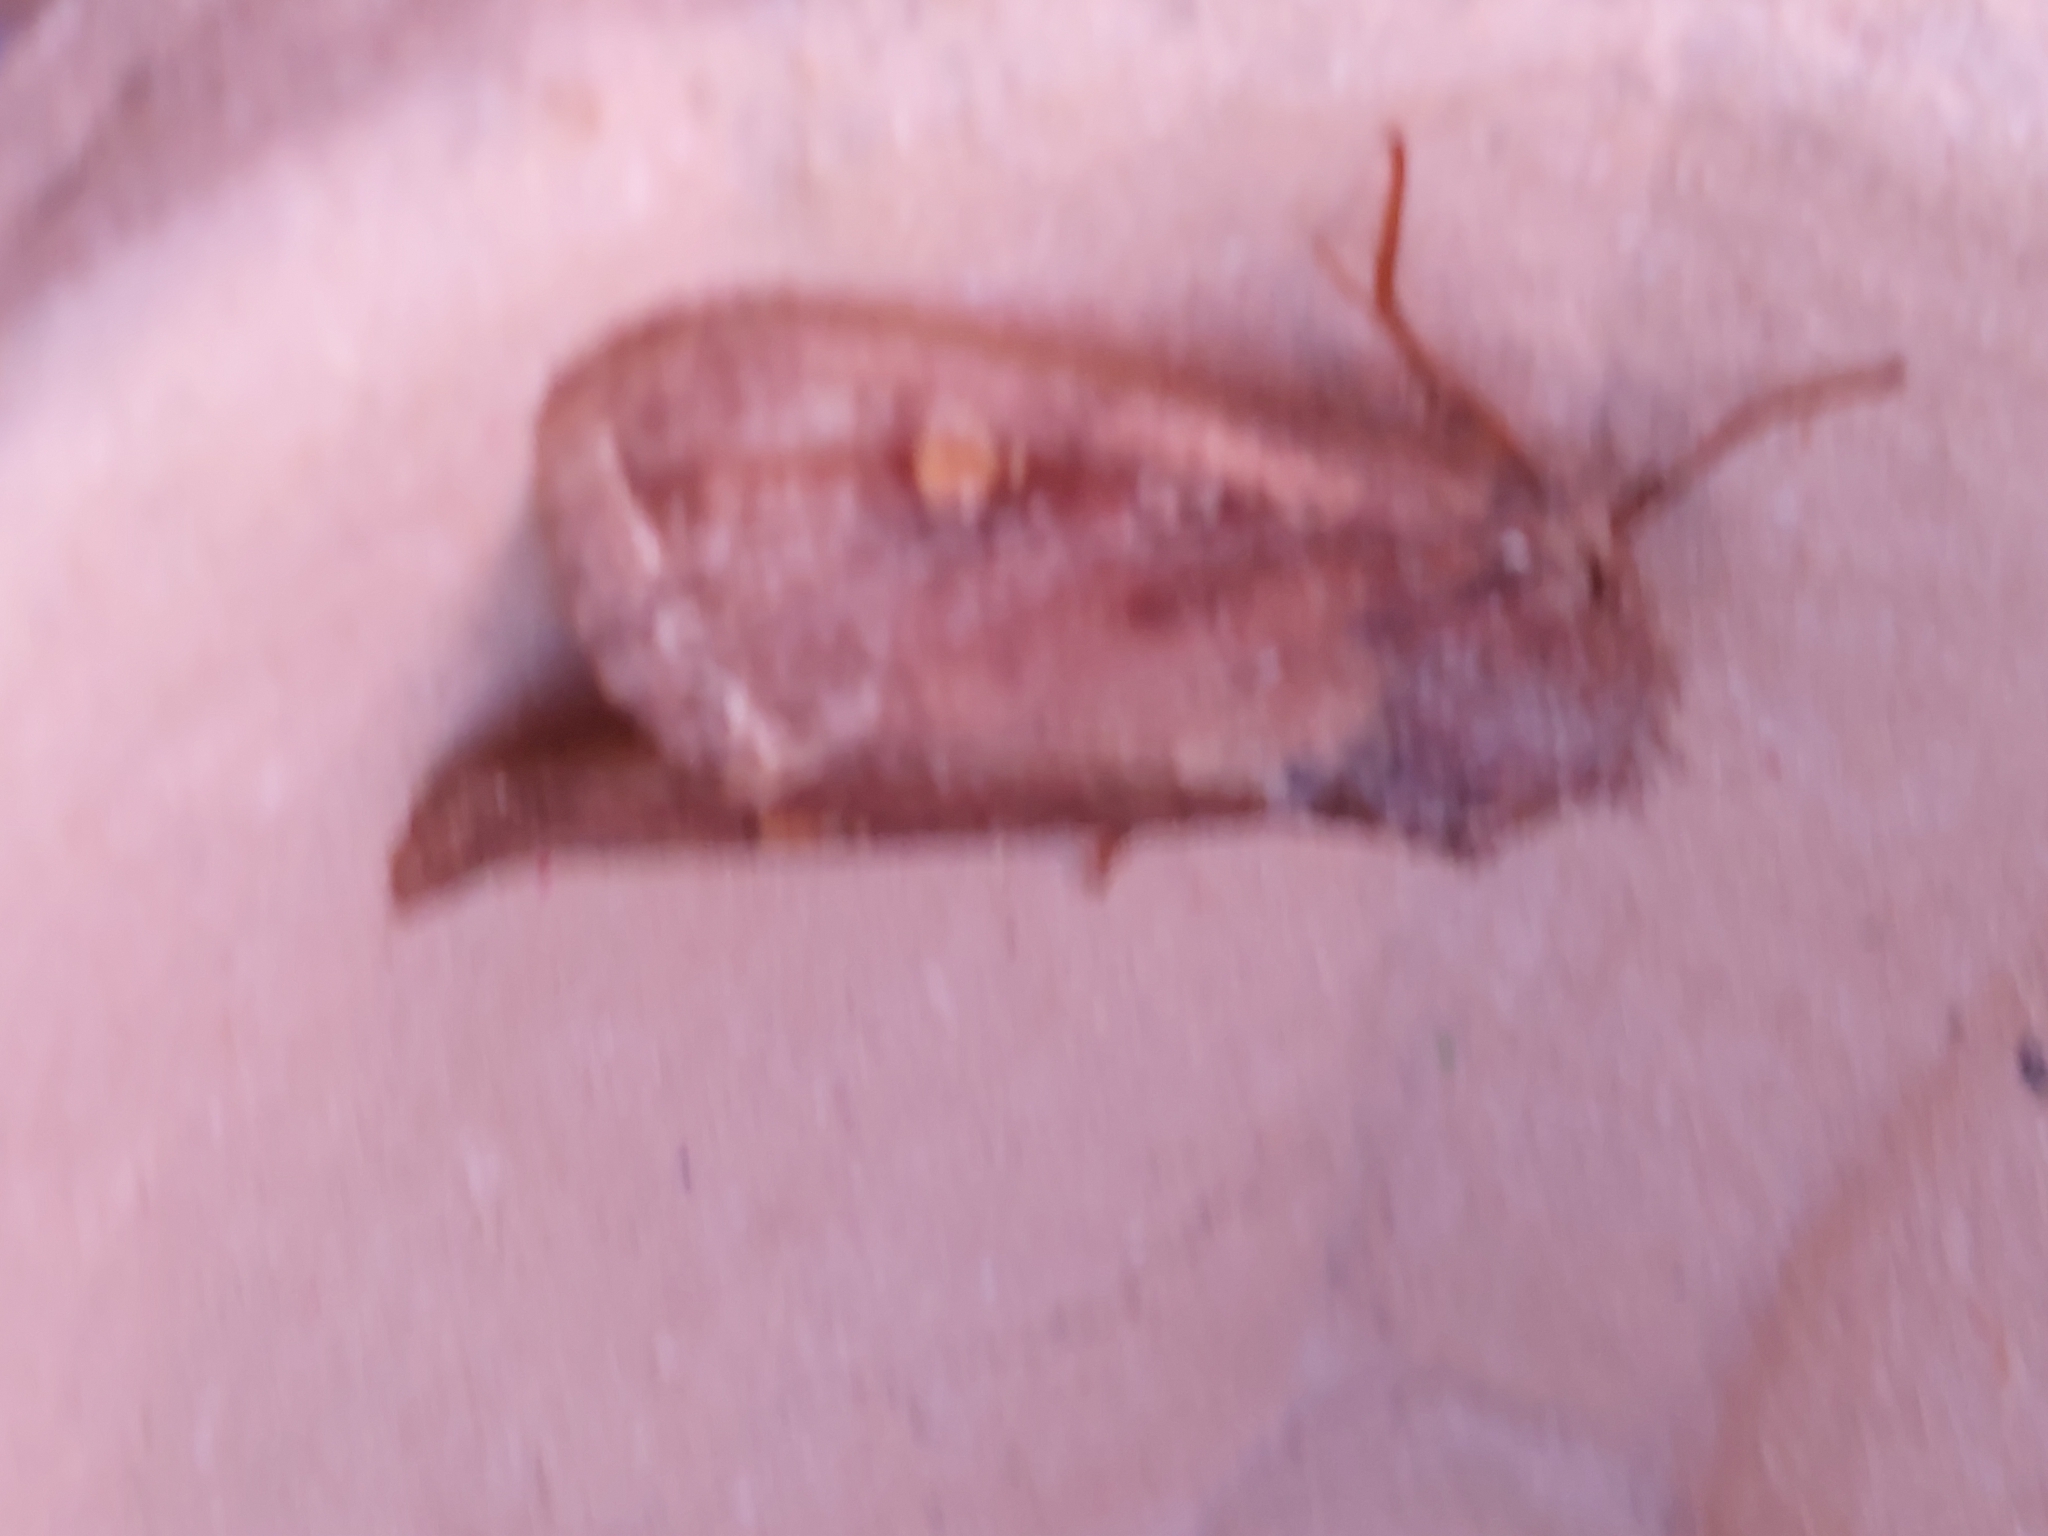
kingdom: Animalia
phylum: Arthropoda
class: Insecta
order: Lepidoptera
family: Noctuidae
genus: Lacanobia
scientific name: Lacanobia oleracea
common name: Bright-line brown-eye
